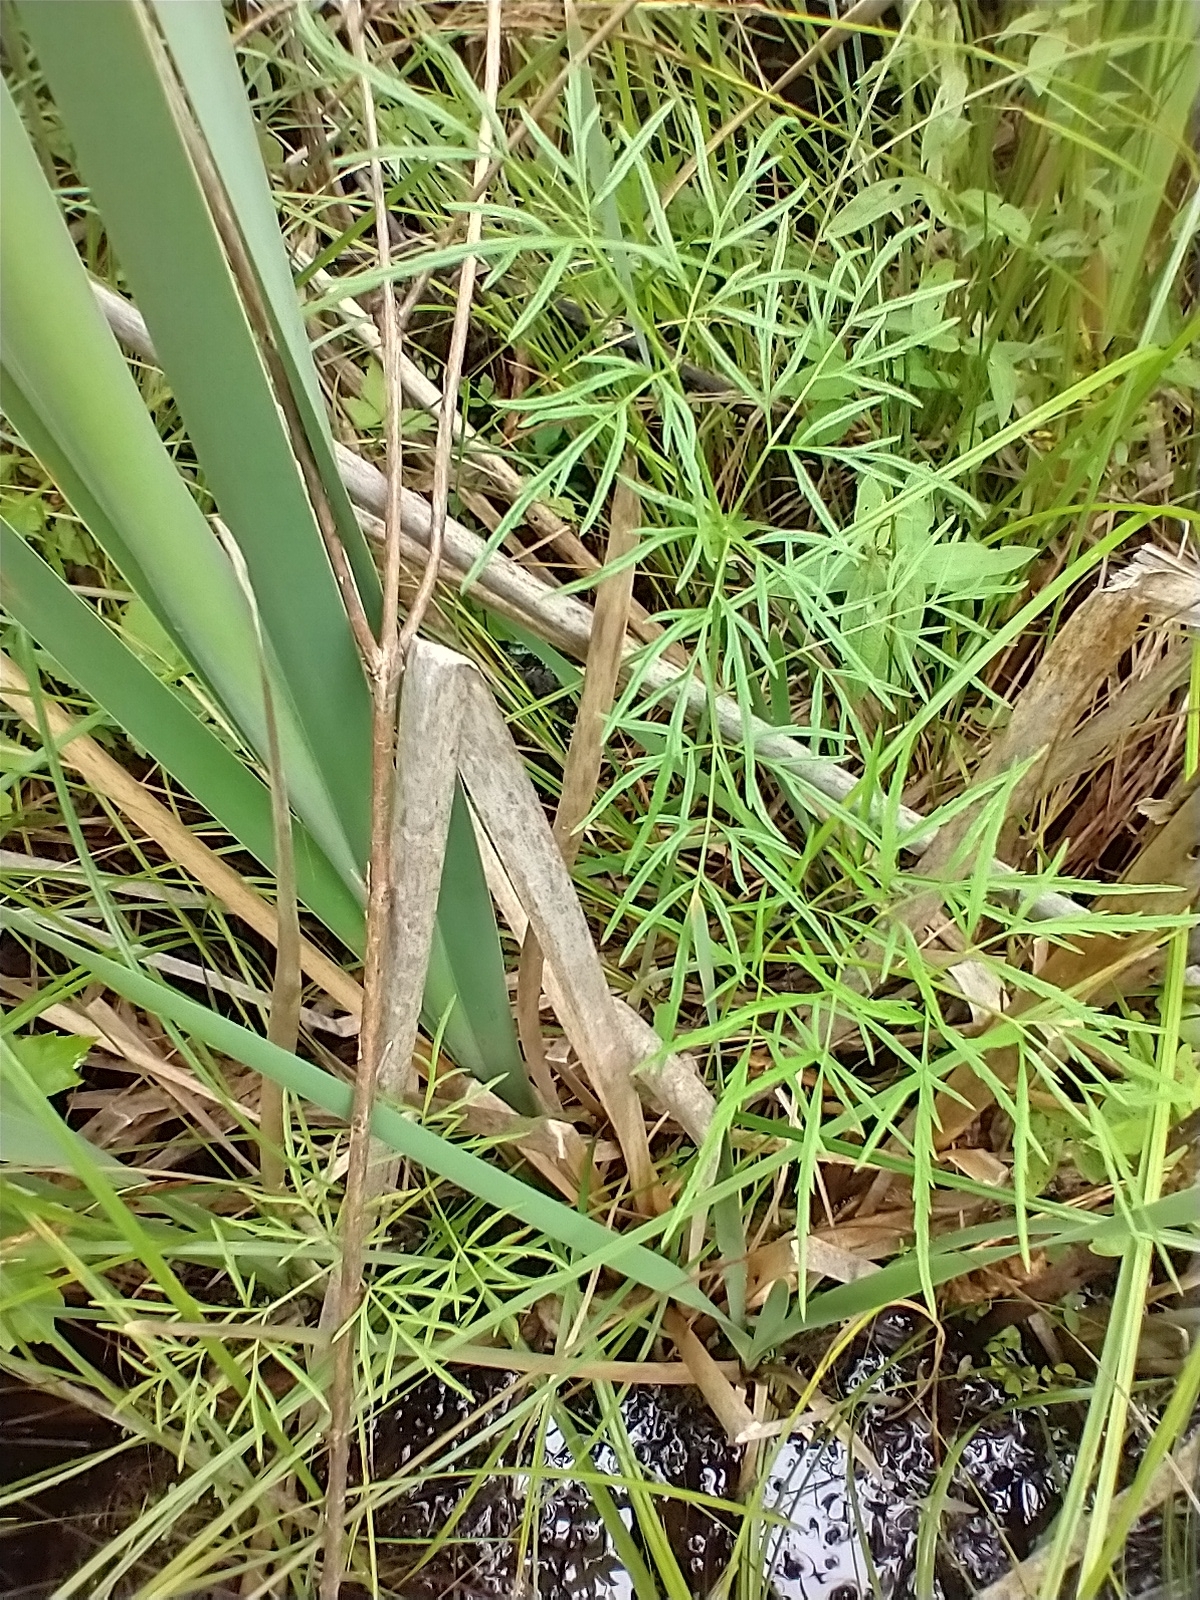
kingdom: Plantae
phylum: Tracheophyta
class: Magnoliopsida
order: Apiales
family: Apiaceae
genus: Cicuta
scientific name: Cicuta bulbifera
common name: Bulb-bearing water-hemlock
